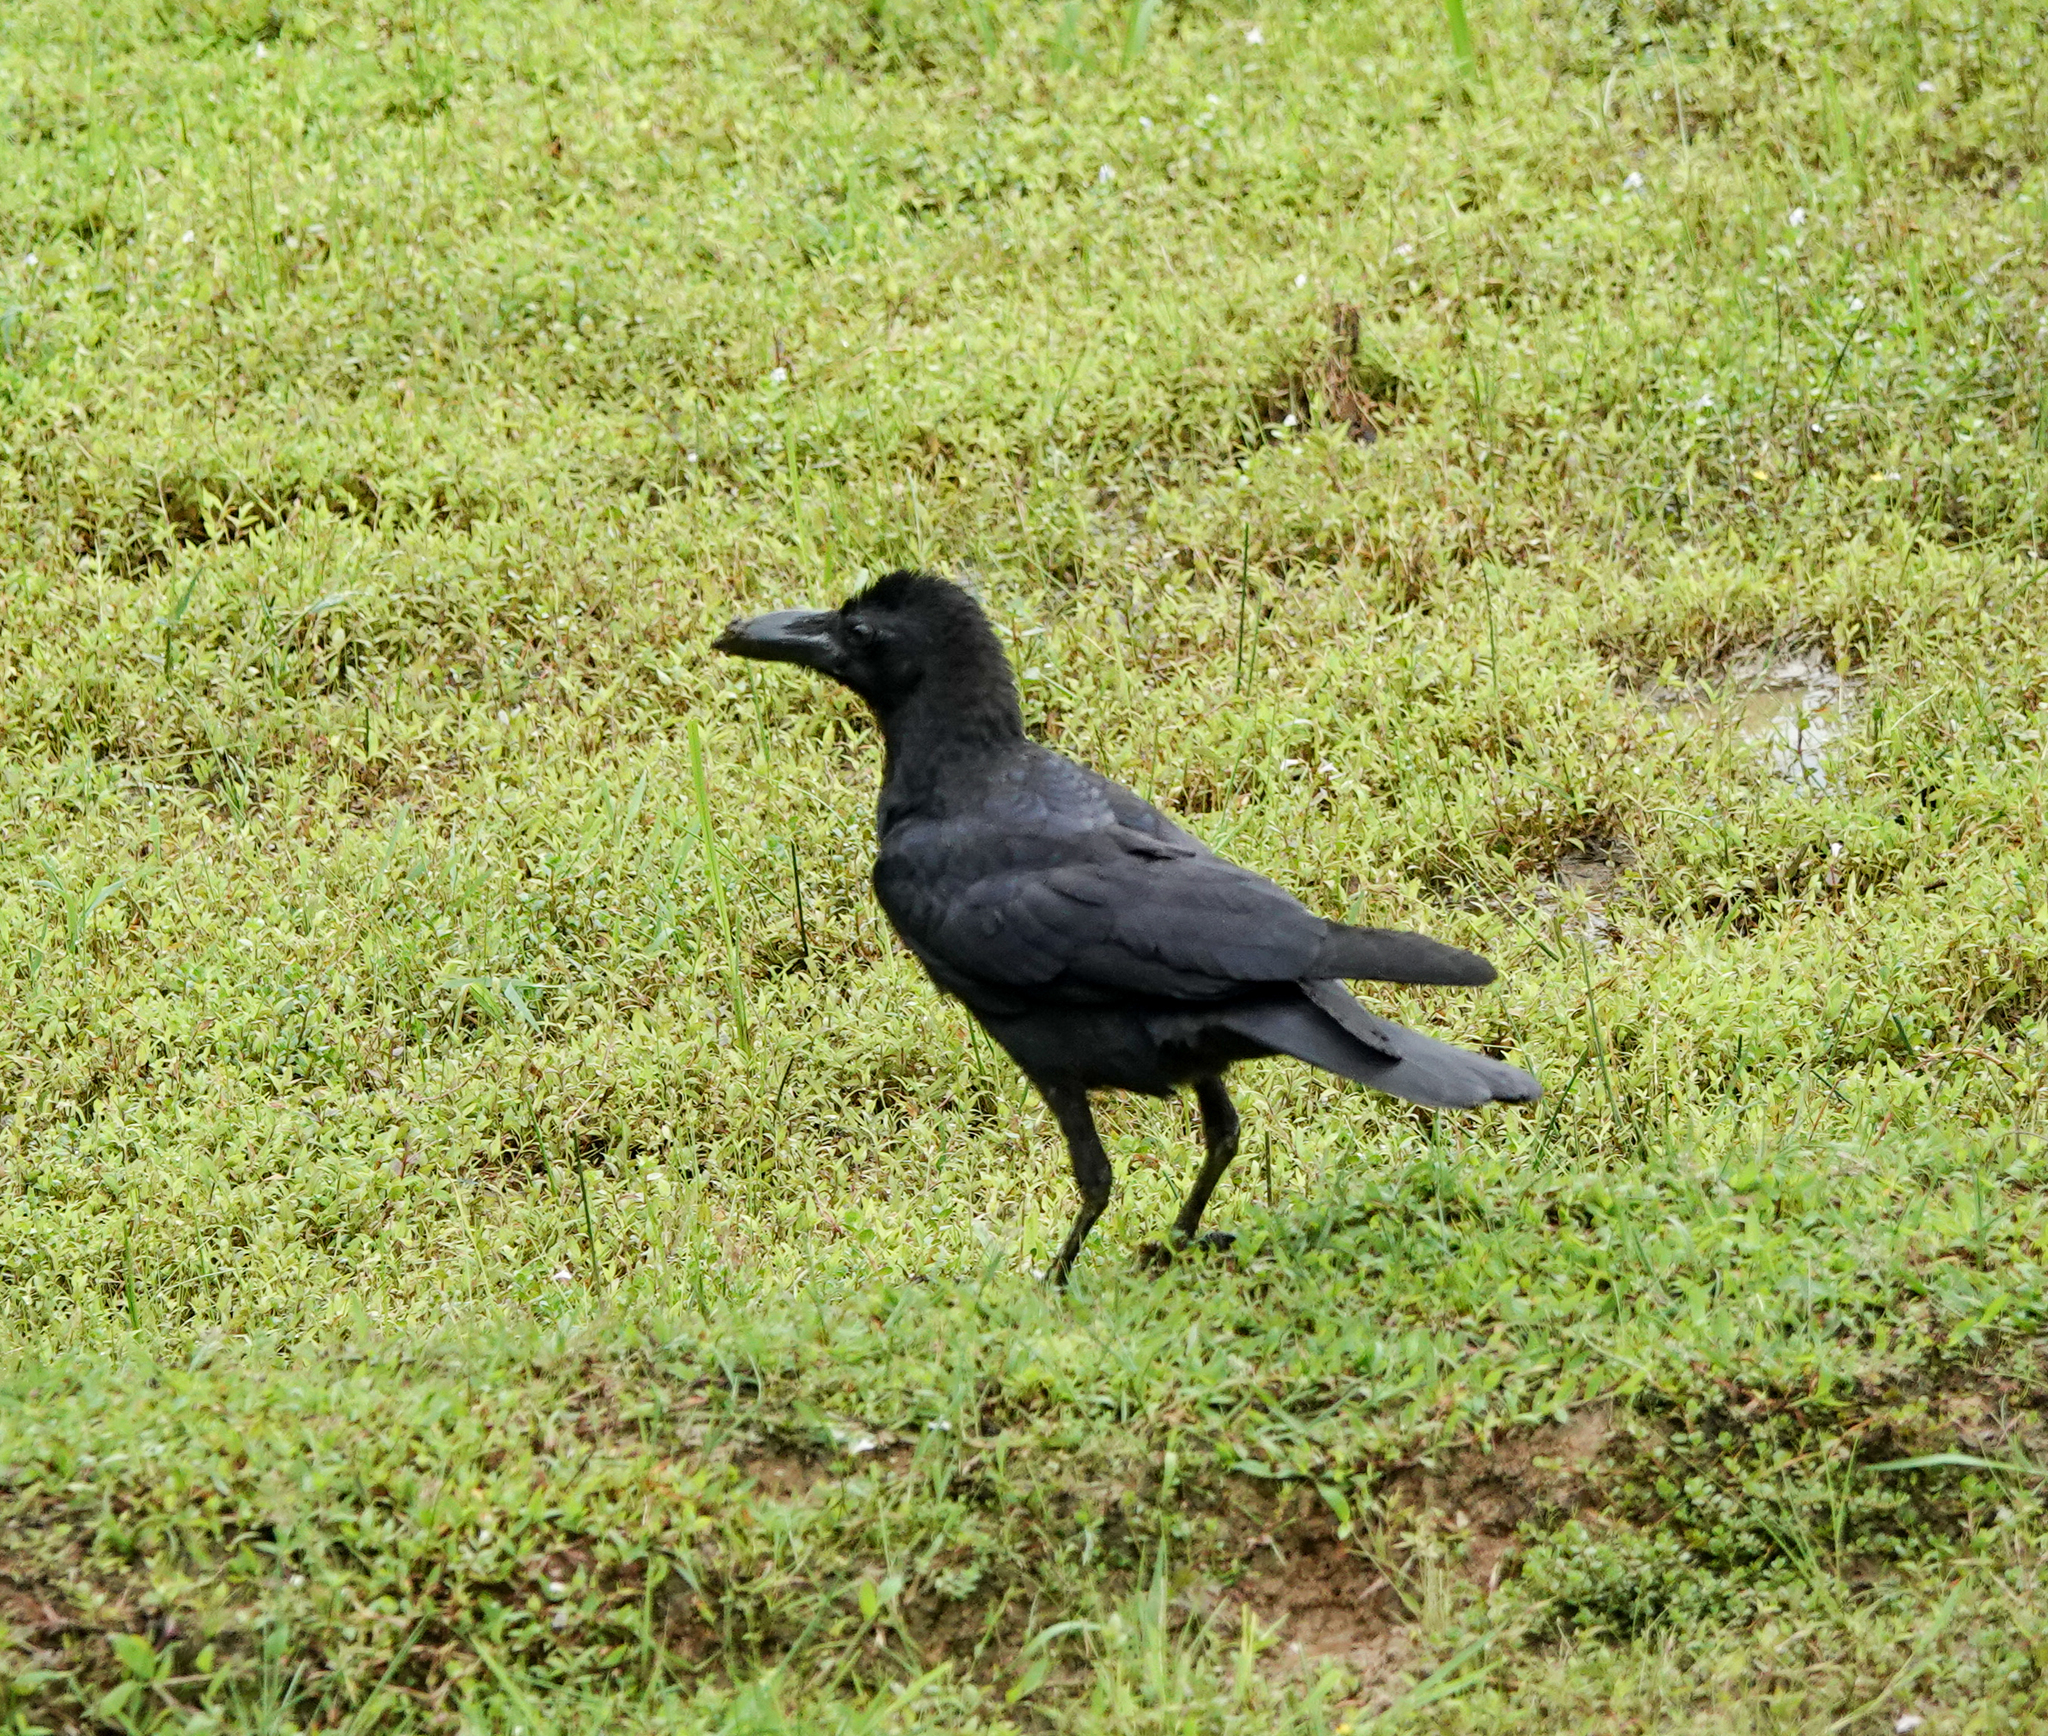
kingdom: Animalia
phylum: Chordata
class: Aves
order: Passeriformes
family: Corvidae
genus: Corvus
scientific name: Corvus macrorhynchos
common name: Large-billed crow
